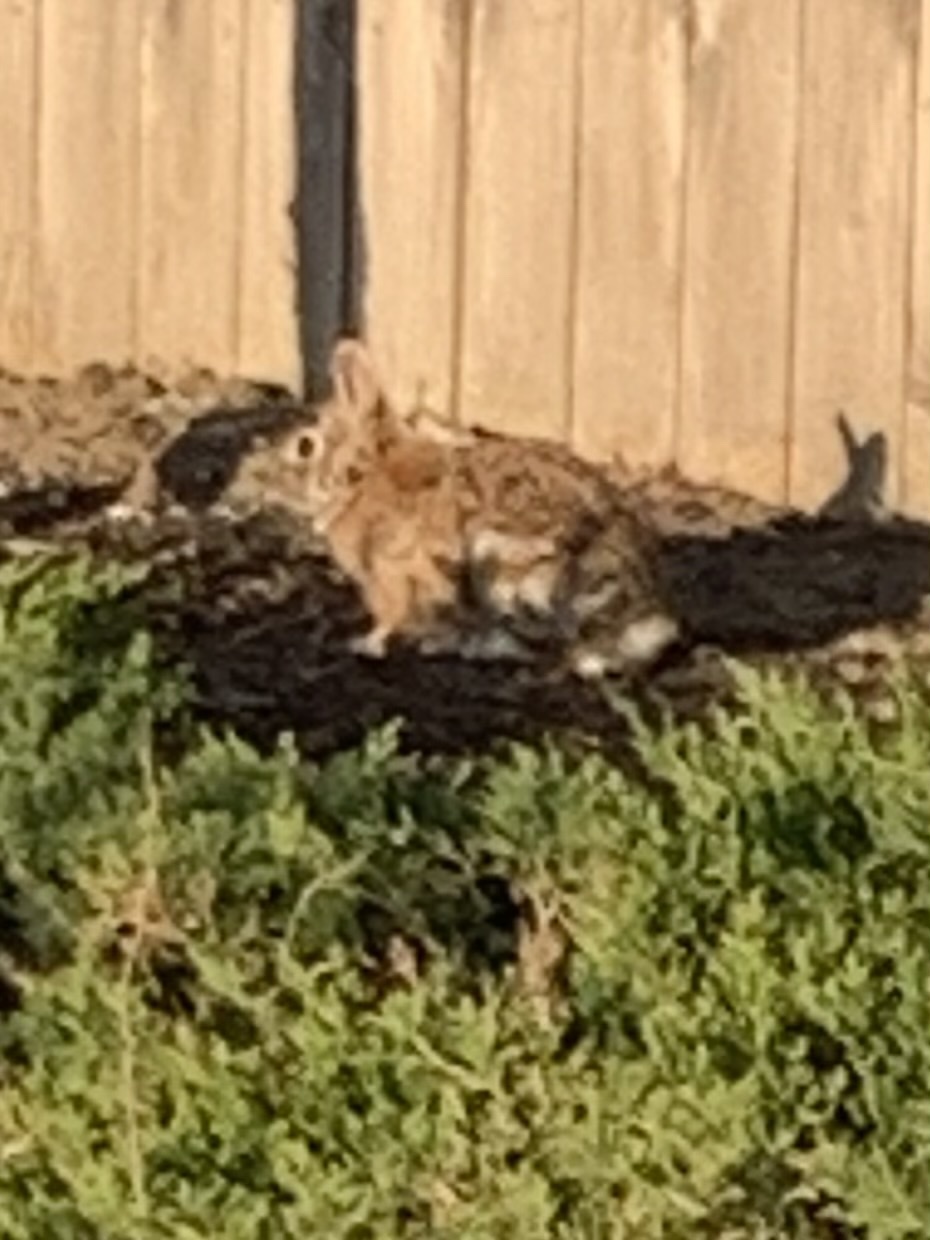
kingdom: Animalia
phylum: Chordata
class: Mammalia
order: Lagomorpha
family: Leporidae
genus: Sylvilagus
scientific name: Sylvilagus floridanus
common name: Eastern cottontail
